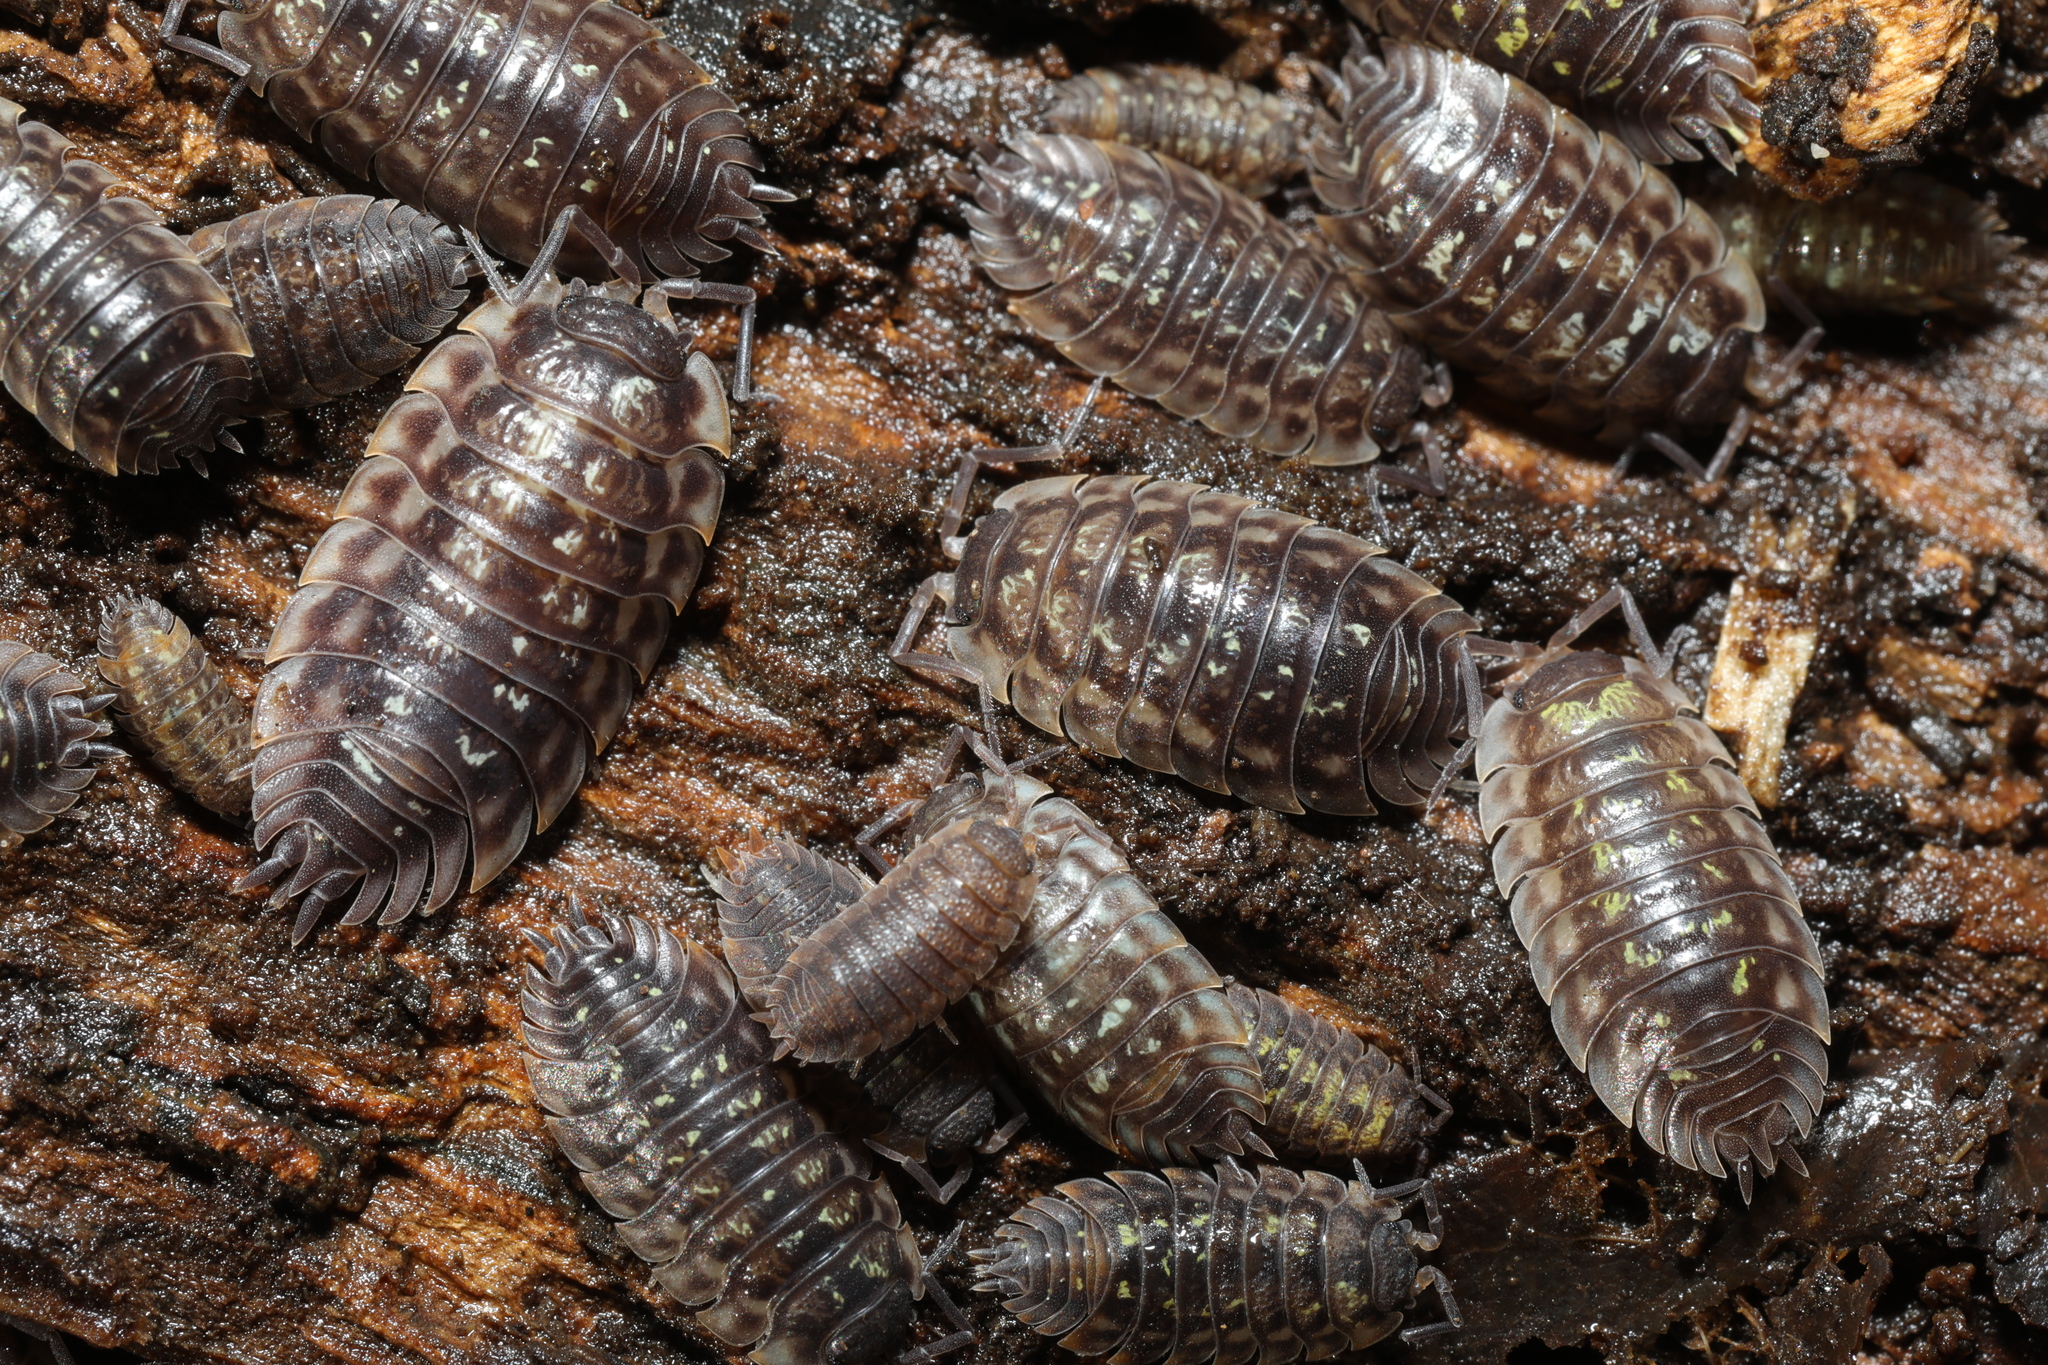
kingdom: Animalia
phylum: Arthropoda
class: Malacostraca
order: Isopoda
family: Oniscidae
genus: Oniscus
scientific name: Oniscus asellus
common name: Common shiny woodlouse
